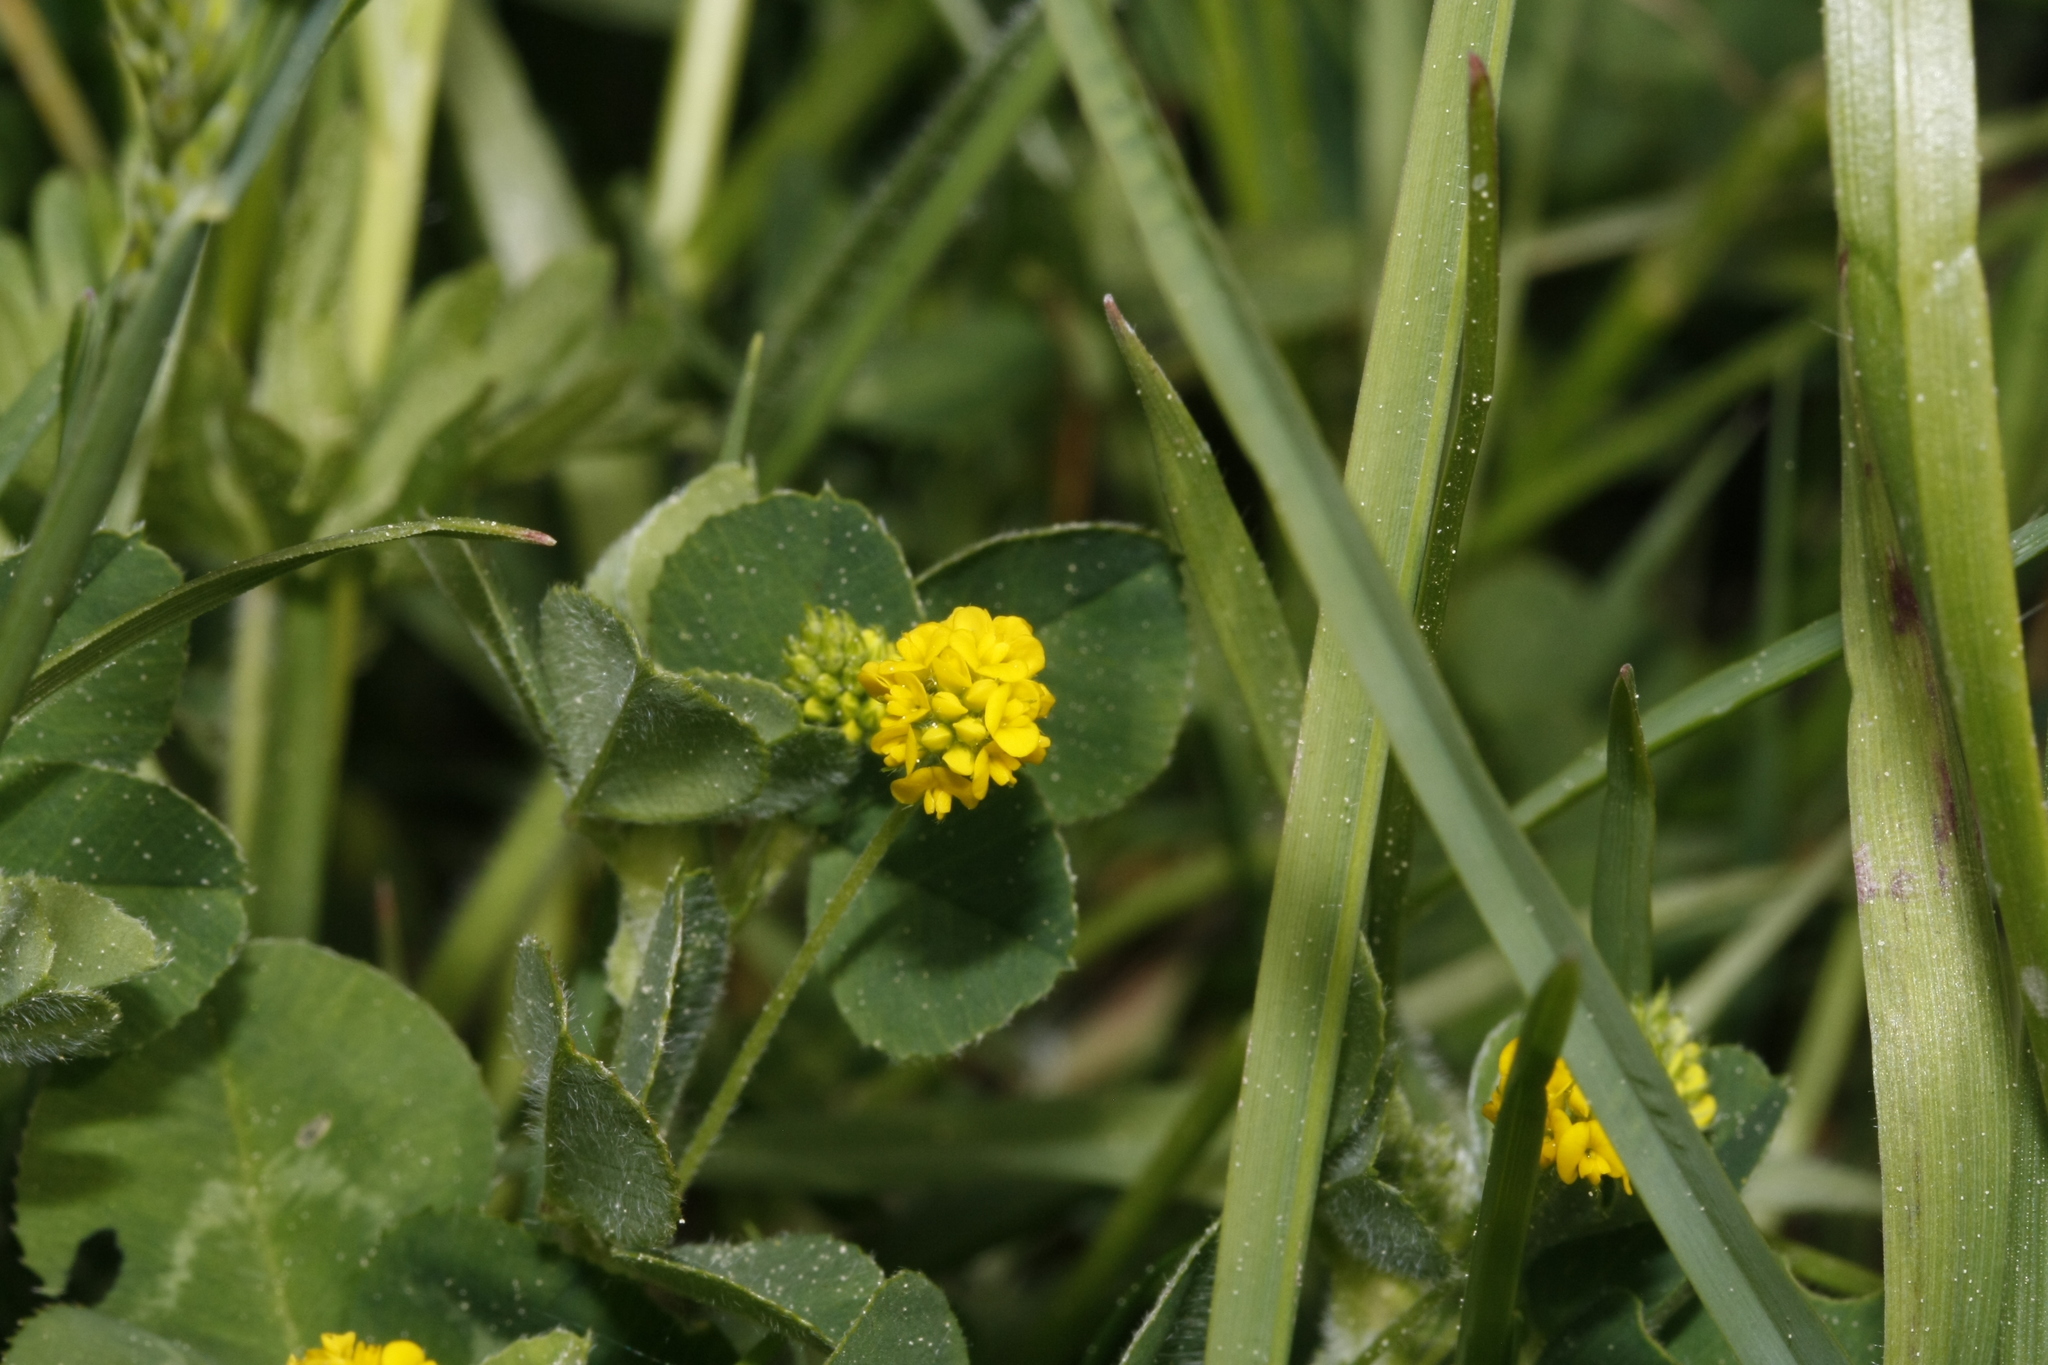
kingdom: Plantae
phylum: Tracheophyta
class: Magnoliopsida
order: Fabales
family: Fabaceae
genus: Medicago
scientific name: Medicago lupulina
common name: Black medick
